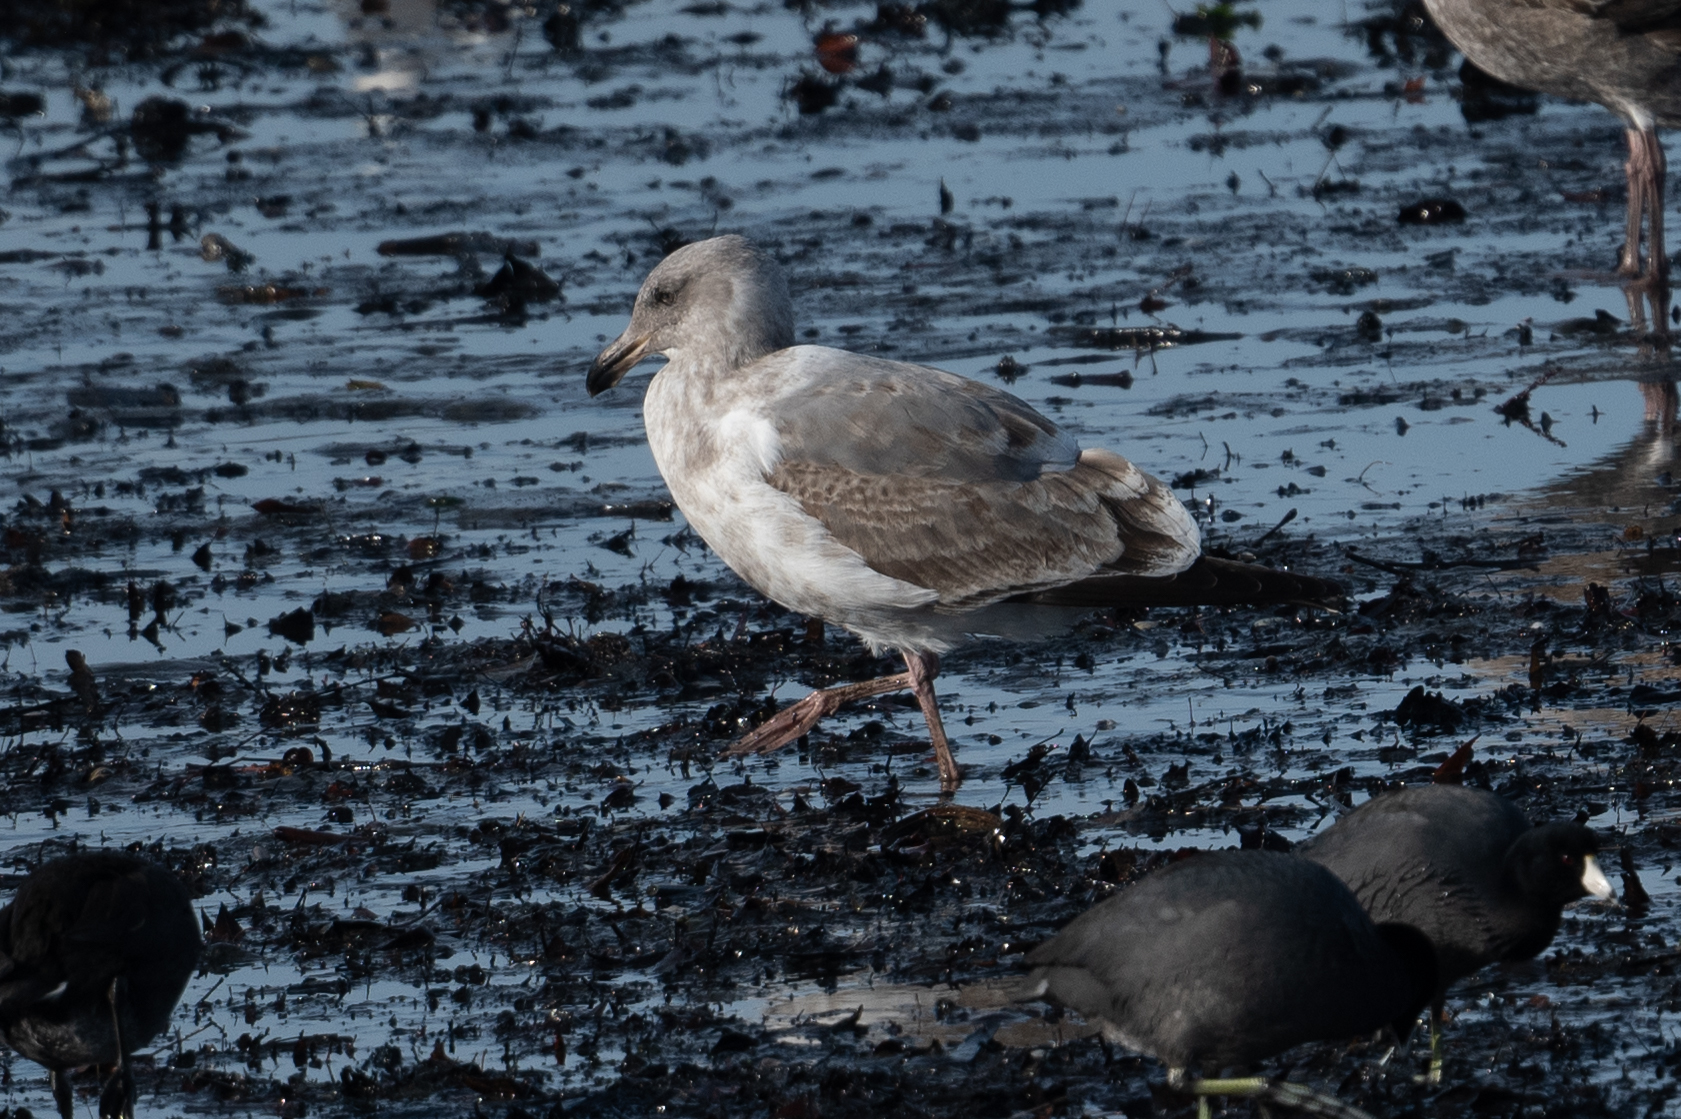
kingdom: Animalia
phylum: Chordata
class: Aves
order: Charadriiformes
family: Laridae
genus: Larus
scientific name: Larus occidentalis
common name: Western gull
